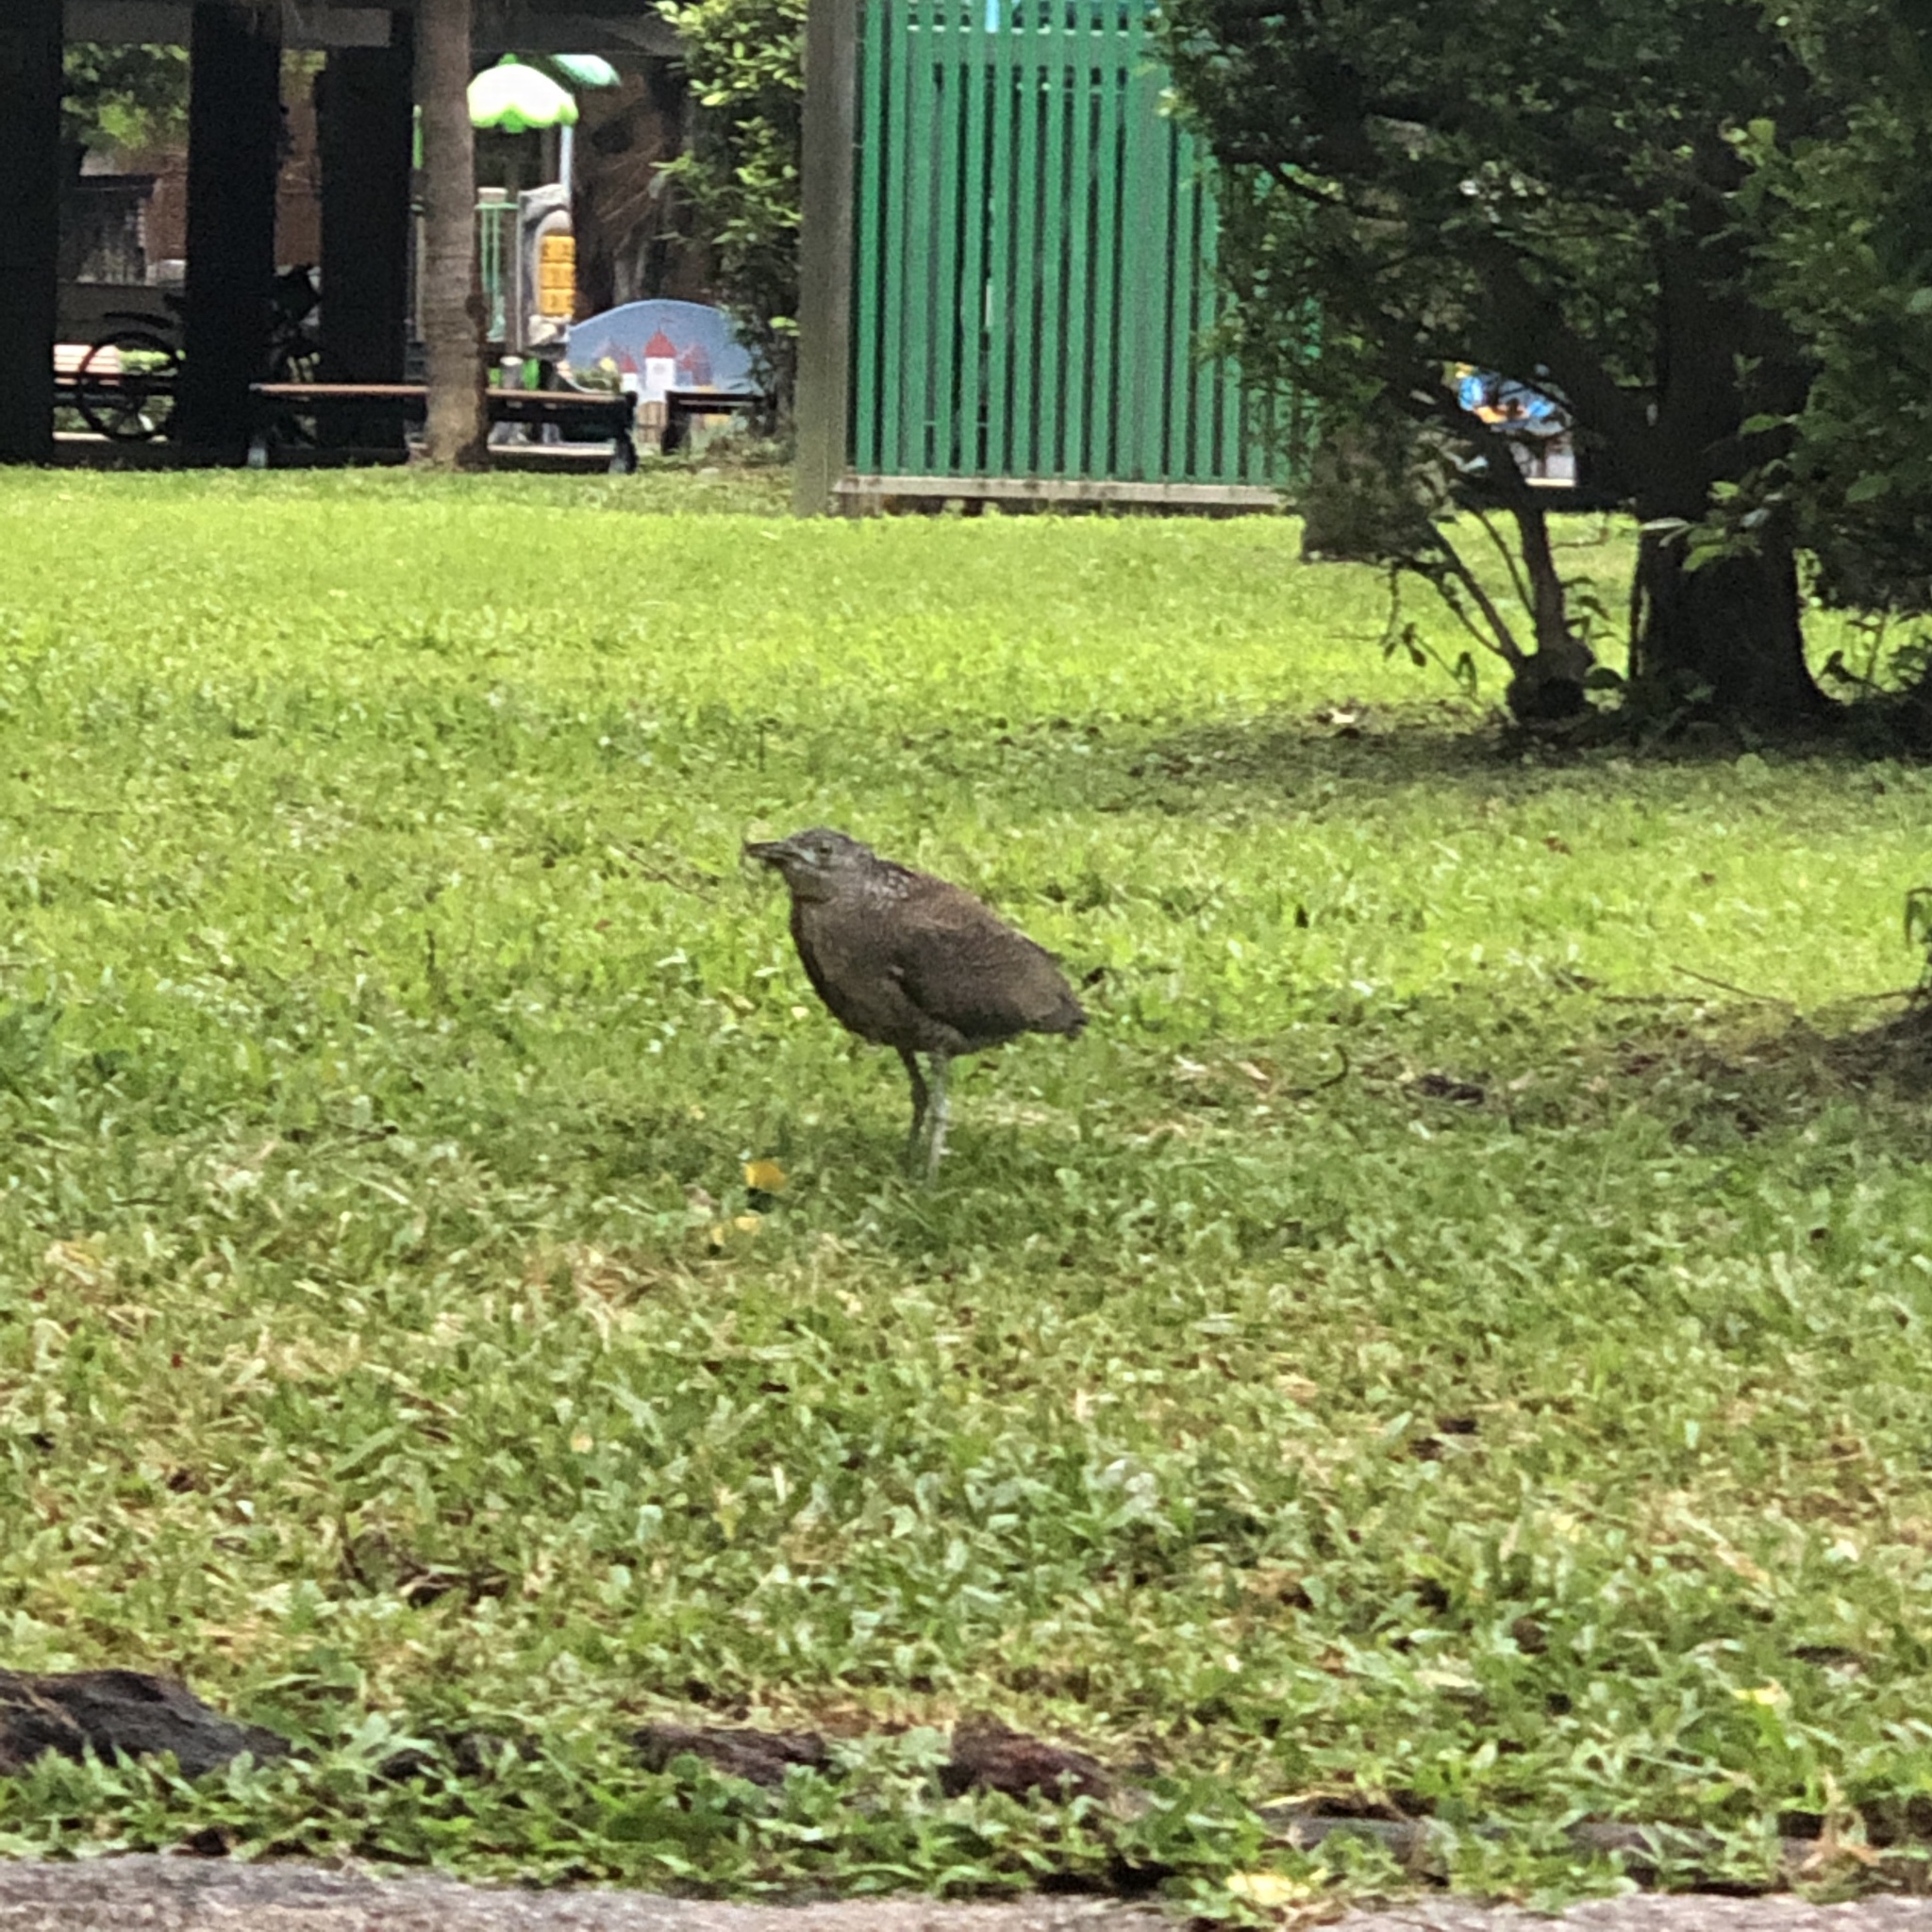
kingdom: Animalia
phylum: Chordata
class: Aves
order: Pelecaniformes
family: Ardeidae
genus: Gorsachius
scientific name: Gorsachius melanolophus
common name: Malayan night heron
